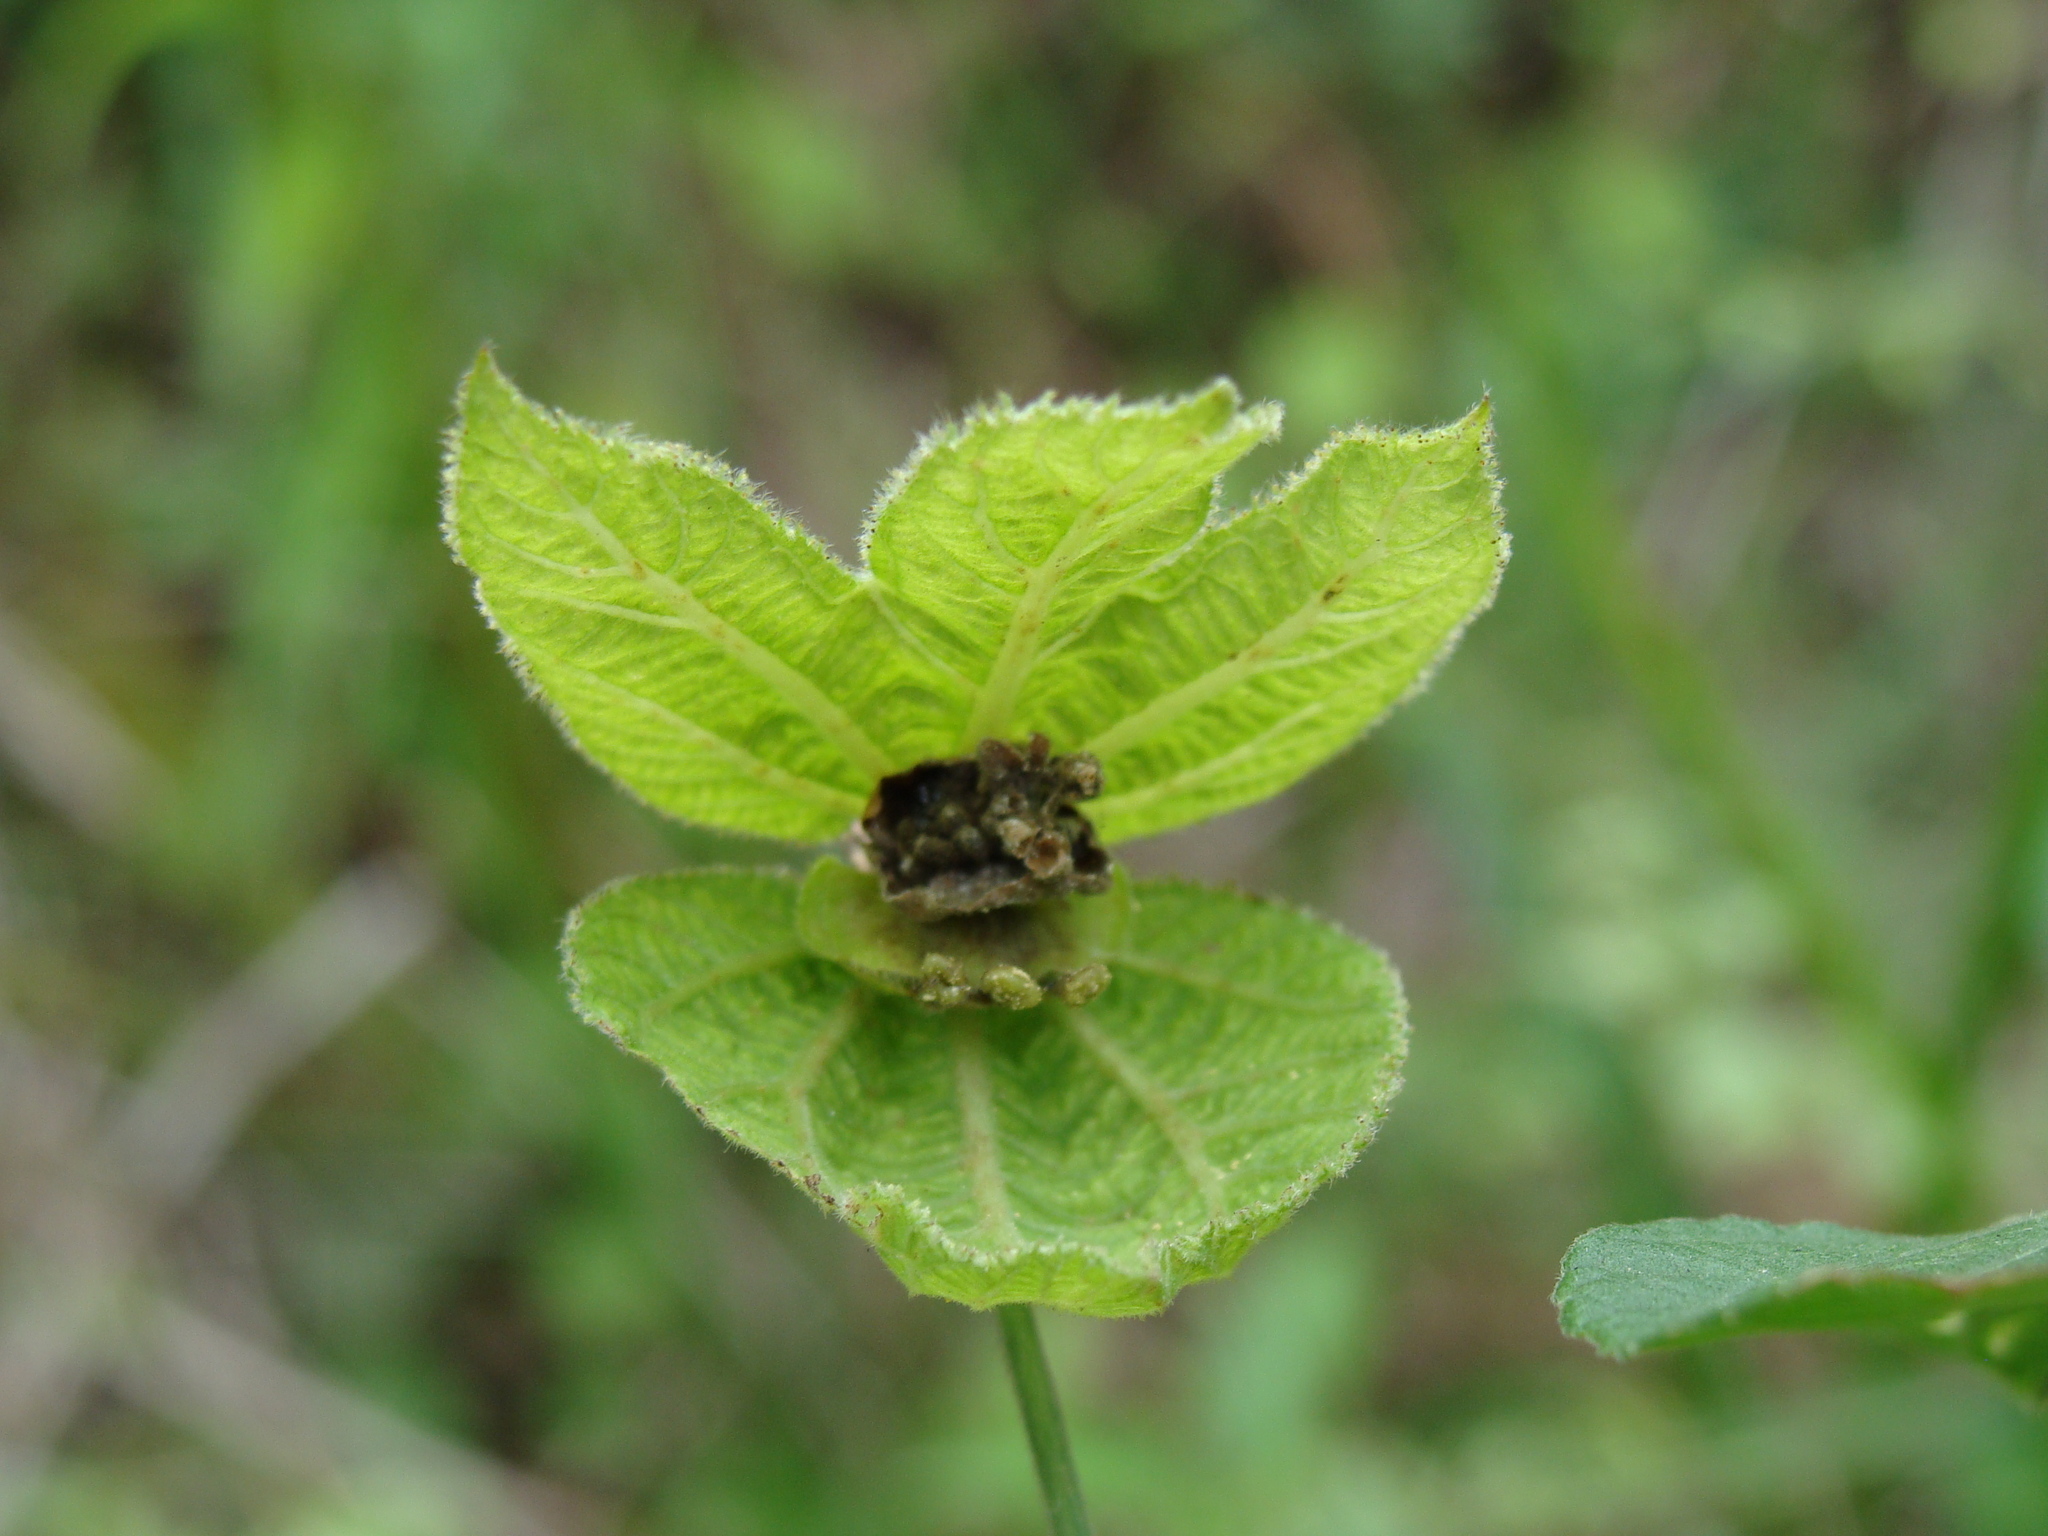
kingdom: Plantae
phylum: Tracheophyta
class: Magnoliopsida
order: Malpighiales
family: Euphorbiaceae
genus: Dalechampia
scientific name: Dalechampia scandens
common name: Spurgecreeper
